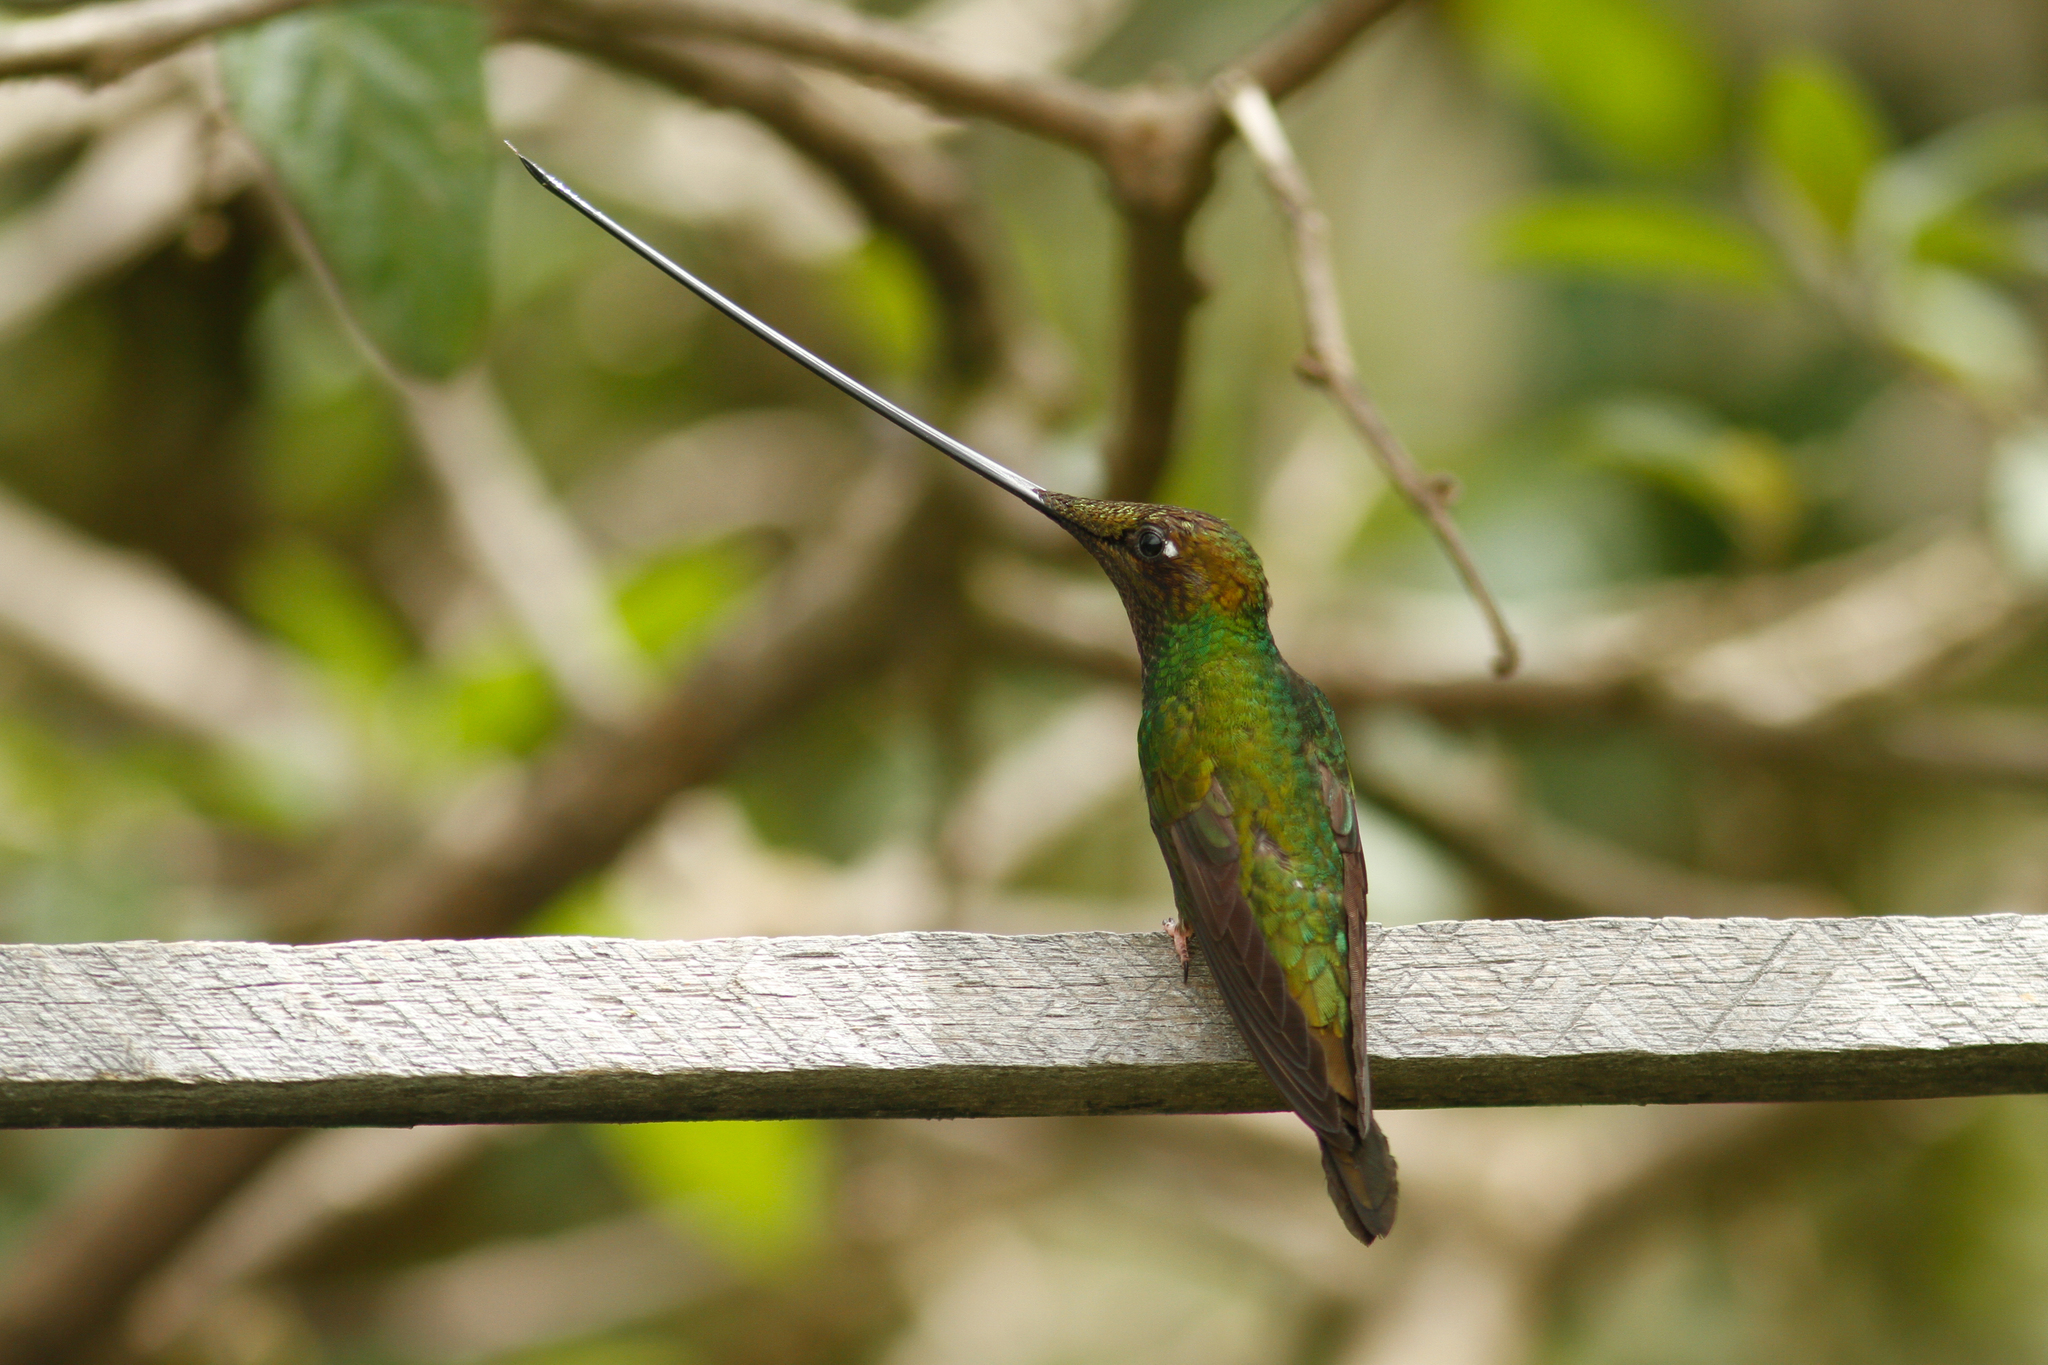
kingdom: Animalia
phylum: Chordata
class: Aves
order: Apodiformes
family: Trochilidae
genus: Ensifera
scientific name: Ensifera ensifera
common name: Sword-billed hummingbird
